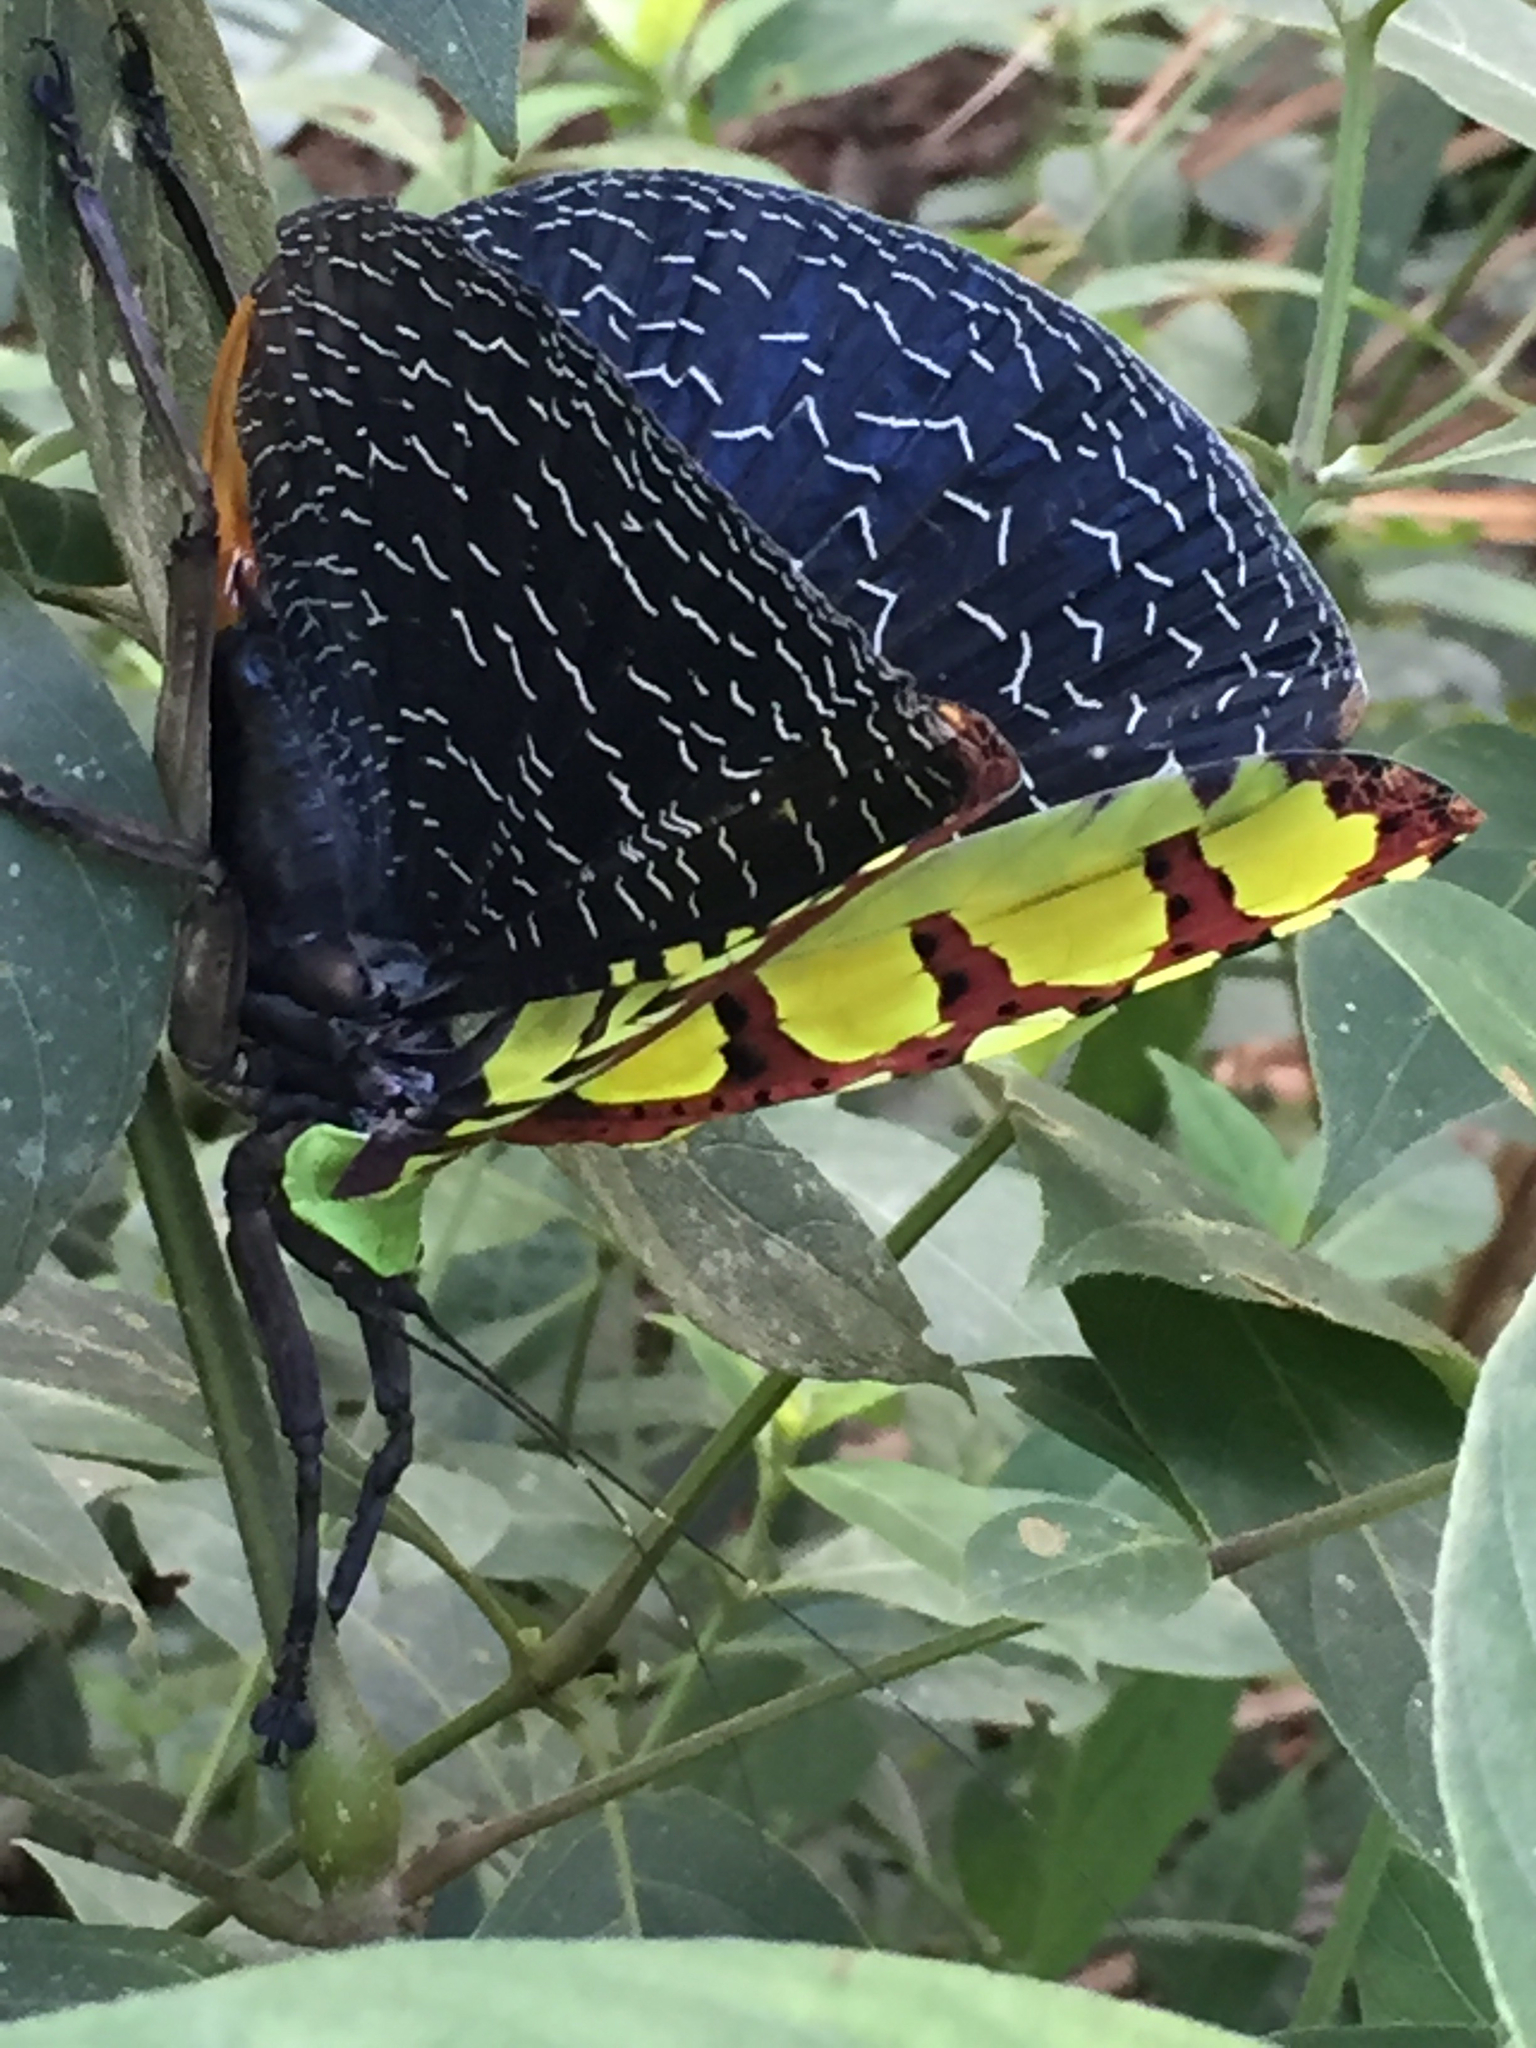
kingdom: Animalia
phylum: Arthropoda
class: Insecta
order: Orthoptera
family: Tettigoniidae
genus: Sanaa
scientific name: Sanaa intermedia
